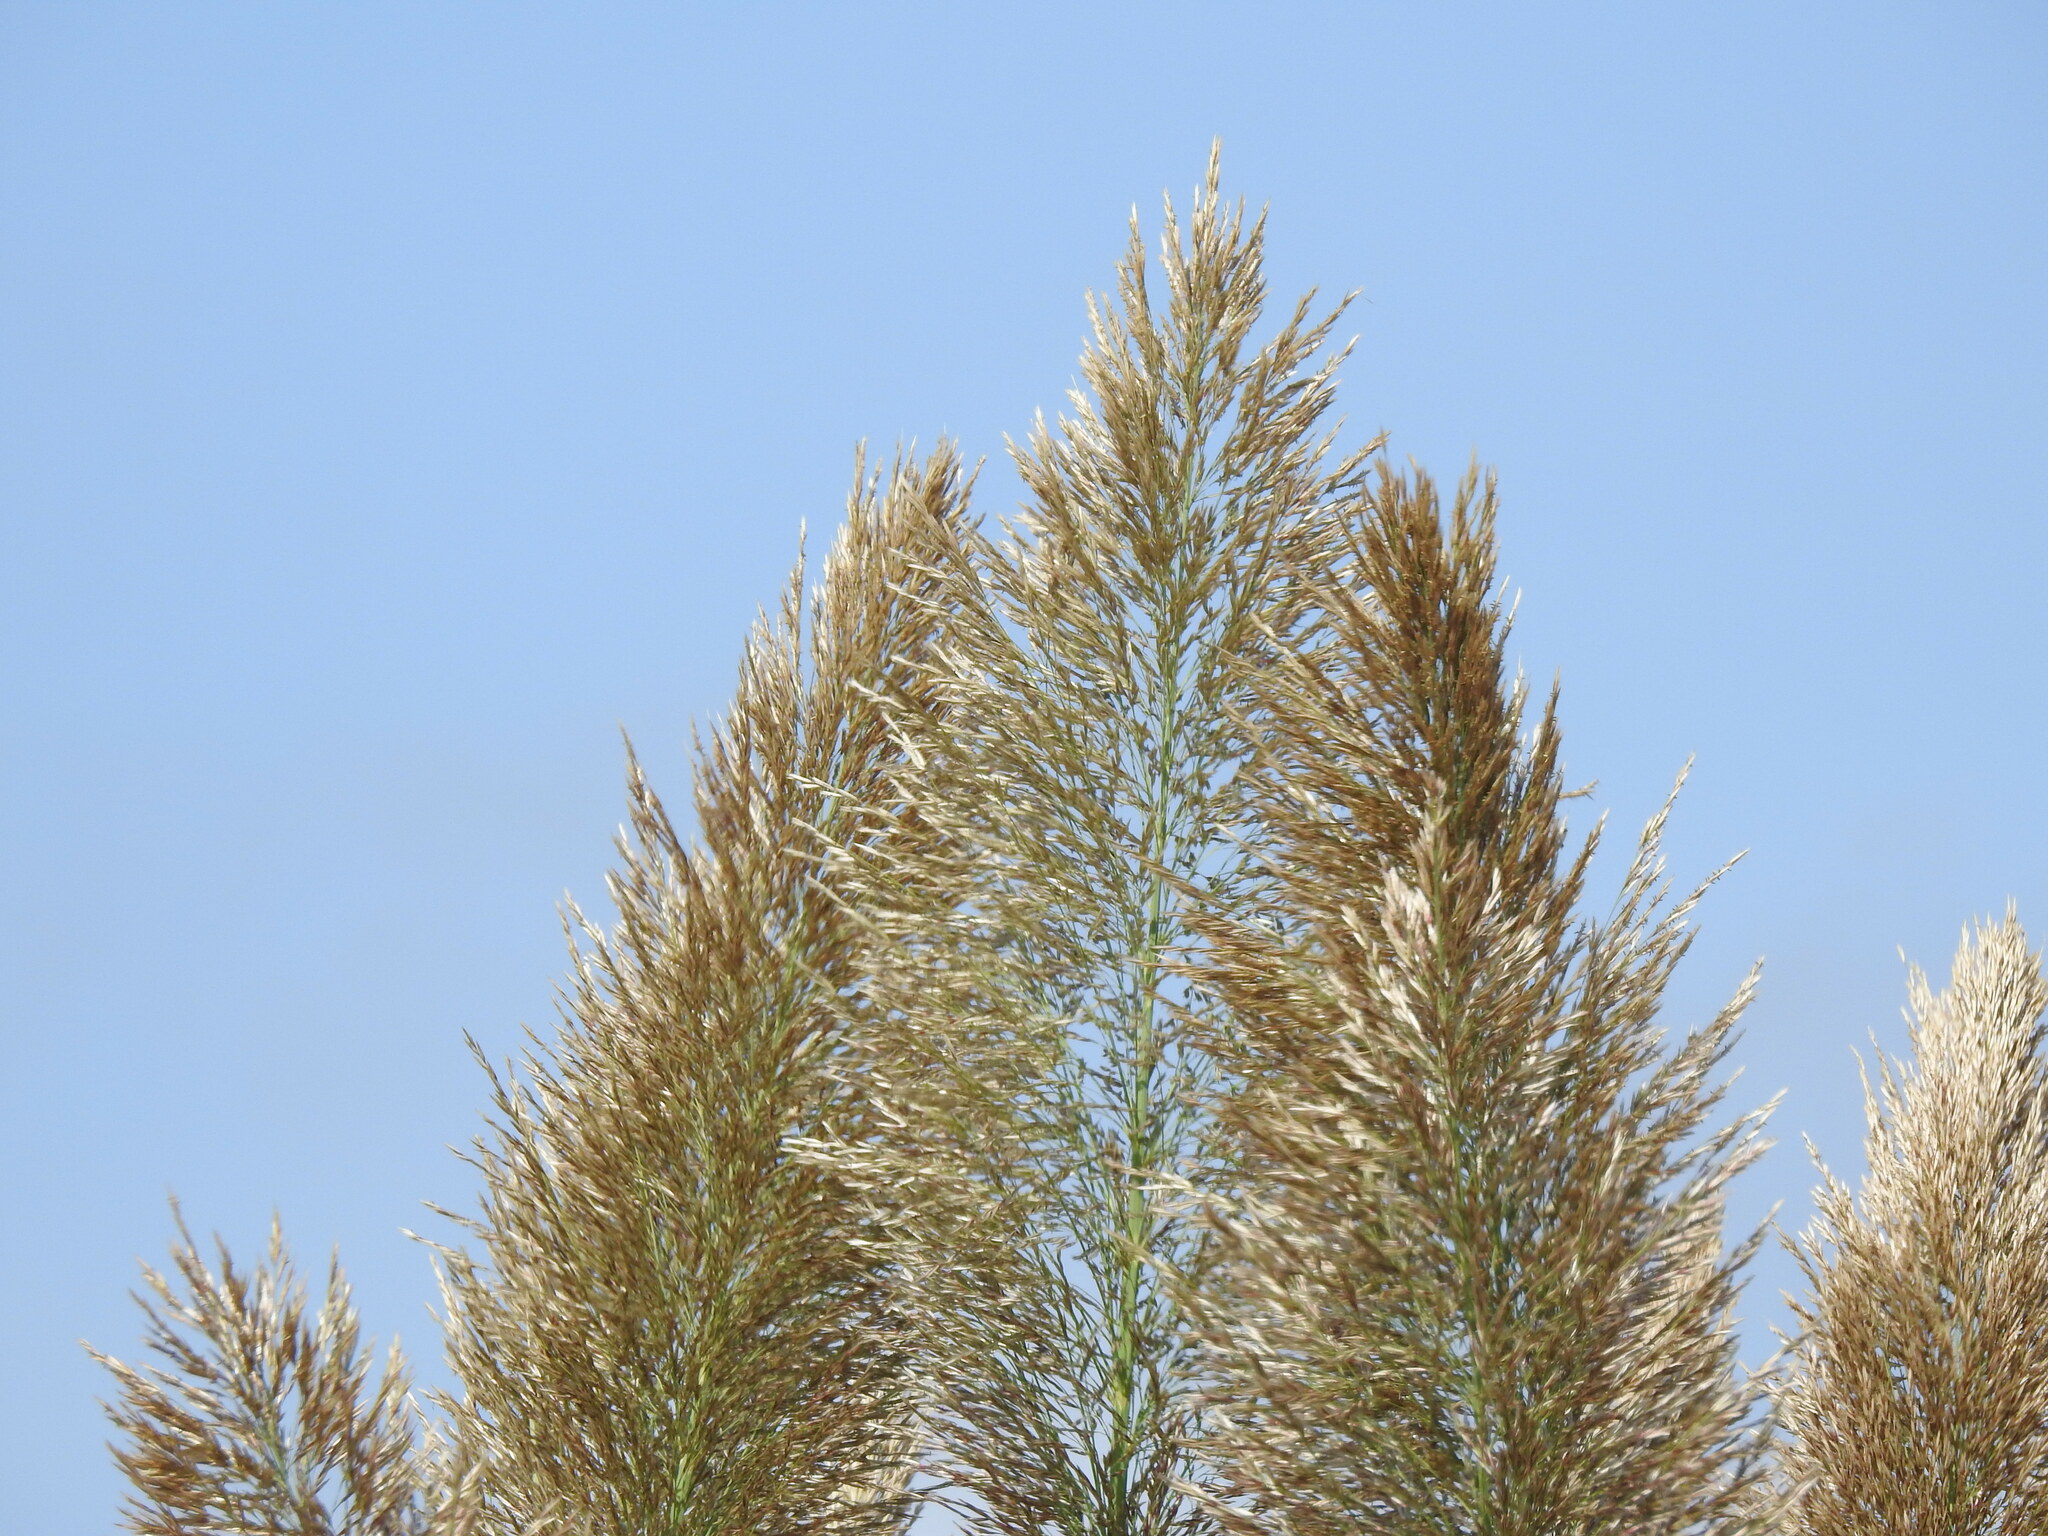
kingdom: Plantae
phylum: Tracheophyta
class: Liliopsida
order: Poales
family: Poaceae
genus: Arundo
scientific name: Arundo donax
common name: Giant reed
